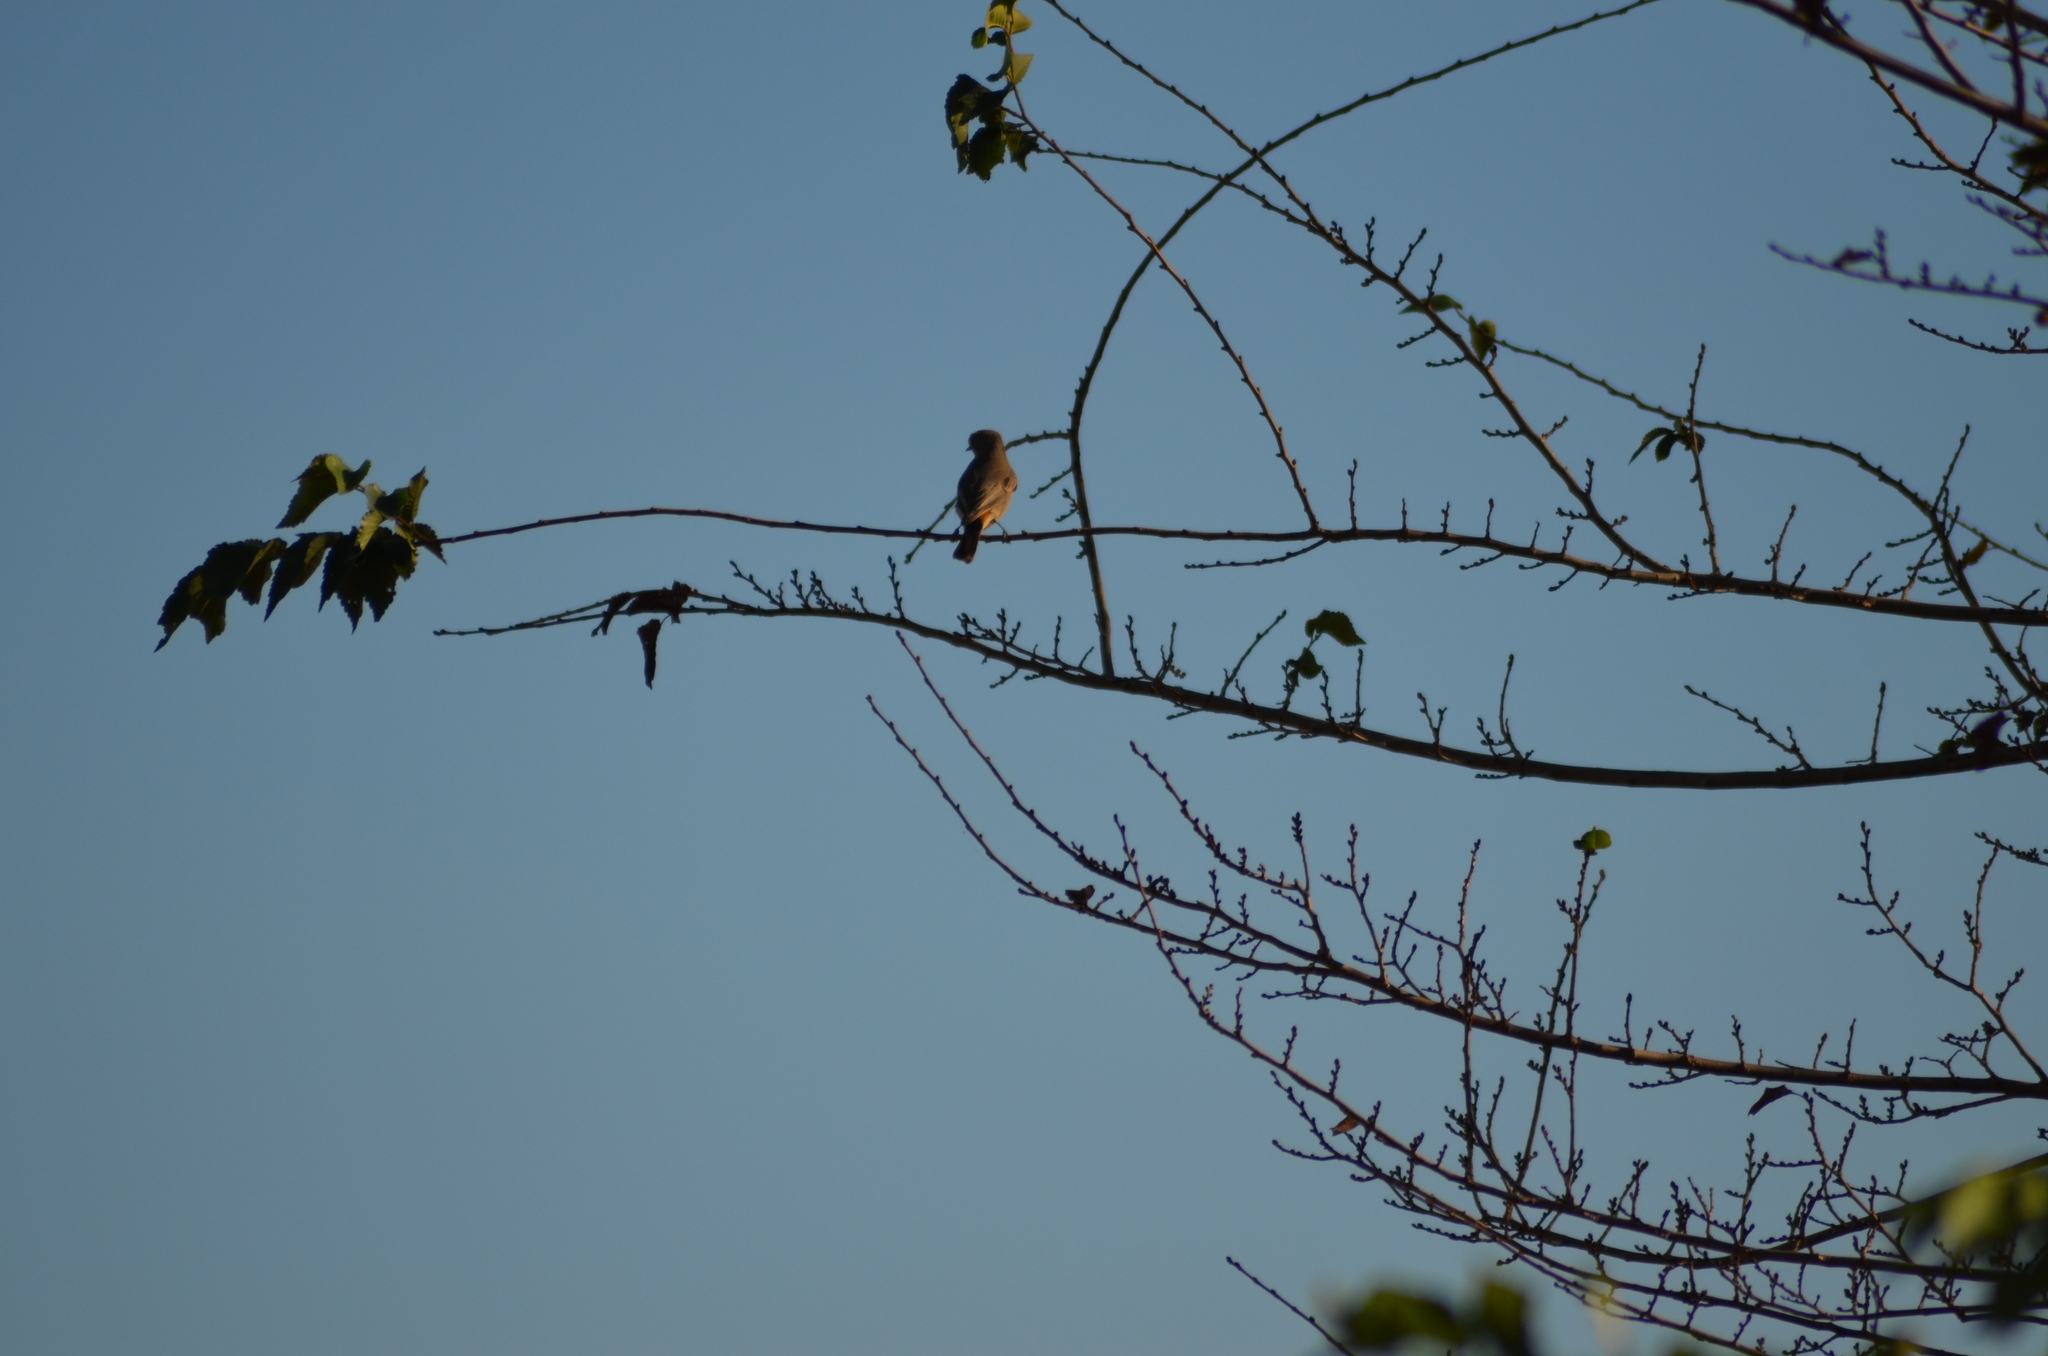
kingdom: Animalia
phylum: Chordata
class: Aves
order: Passeriformes
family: Muscicapidae
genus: Phoenicurus
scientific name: Phoenicurus ochruros
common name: Black redstart
